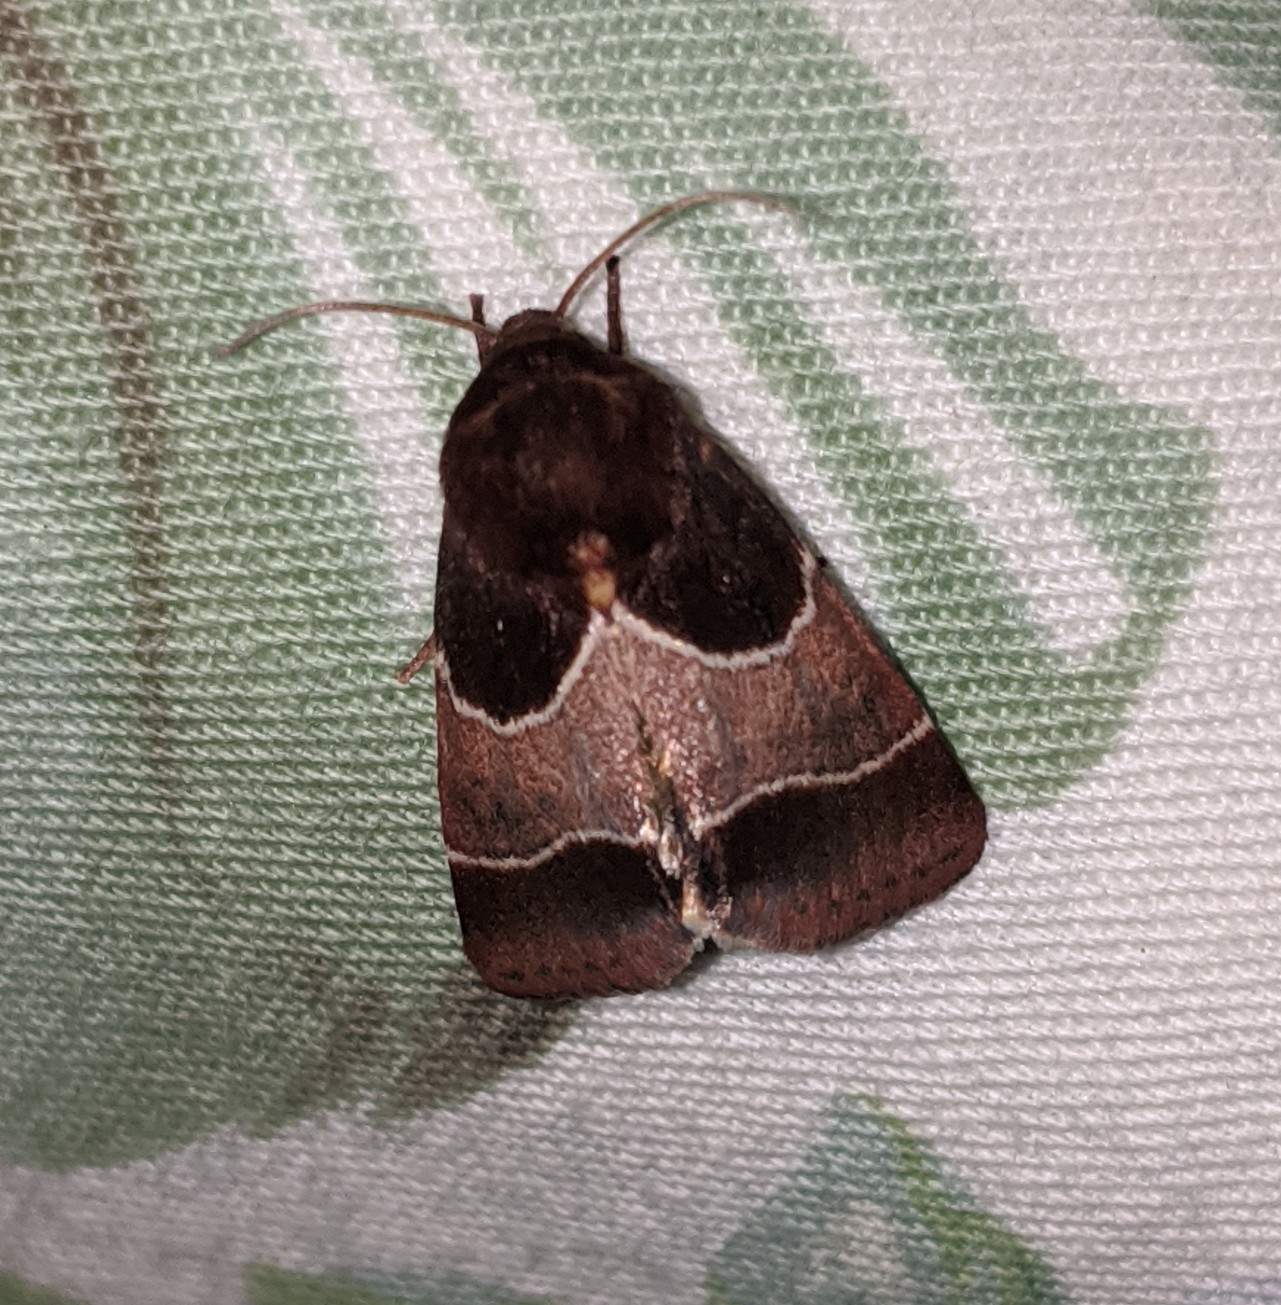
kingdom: Animalia
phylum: Arthropoda
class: Insecta
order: Lepidoptera
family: Noctuidae
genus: Schinia
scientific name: Schinia arcigera
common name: Arcigera flower moth
